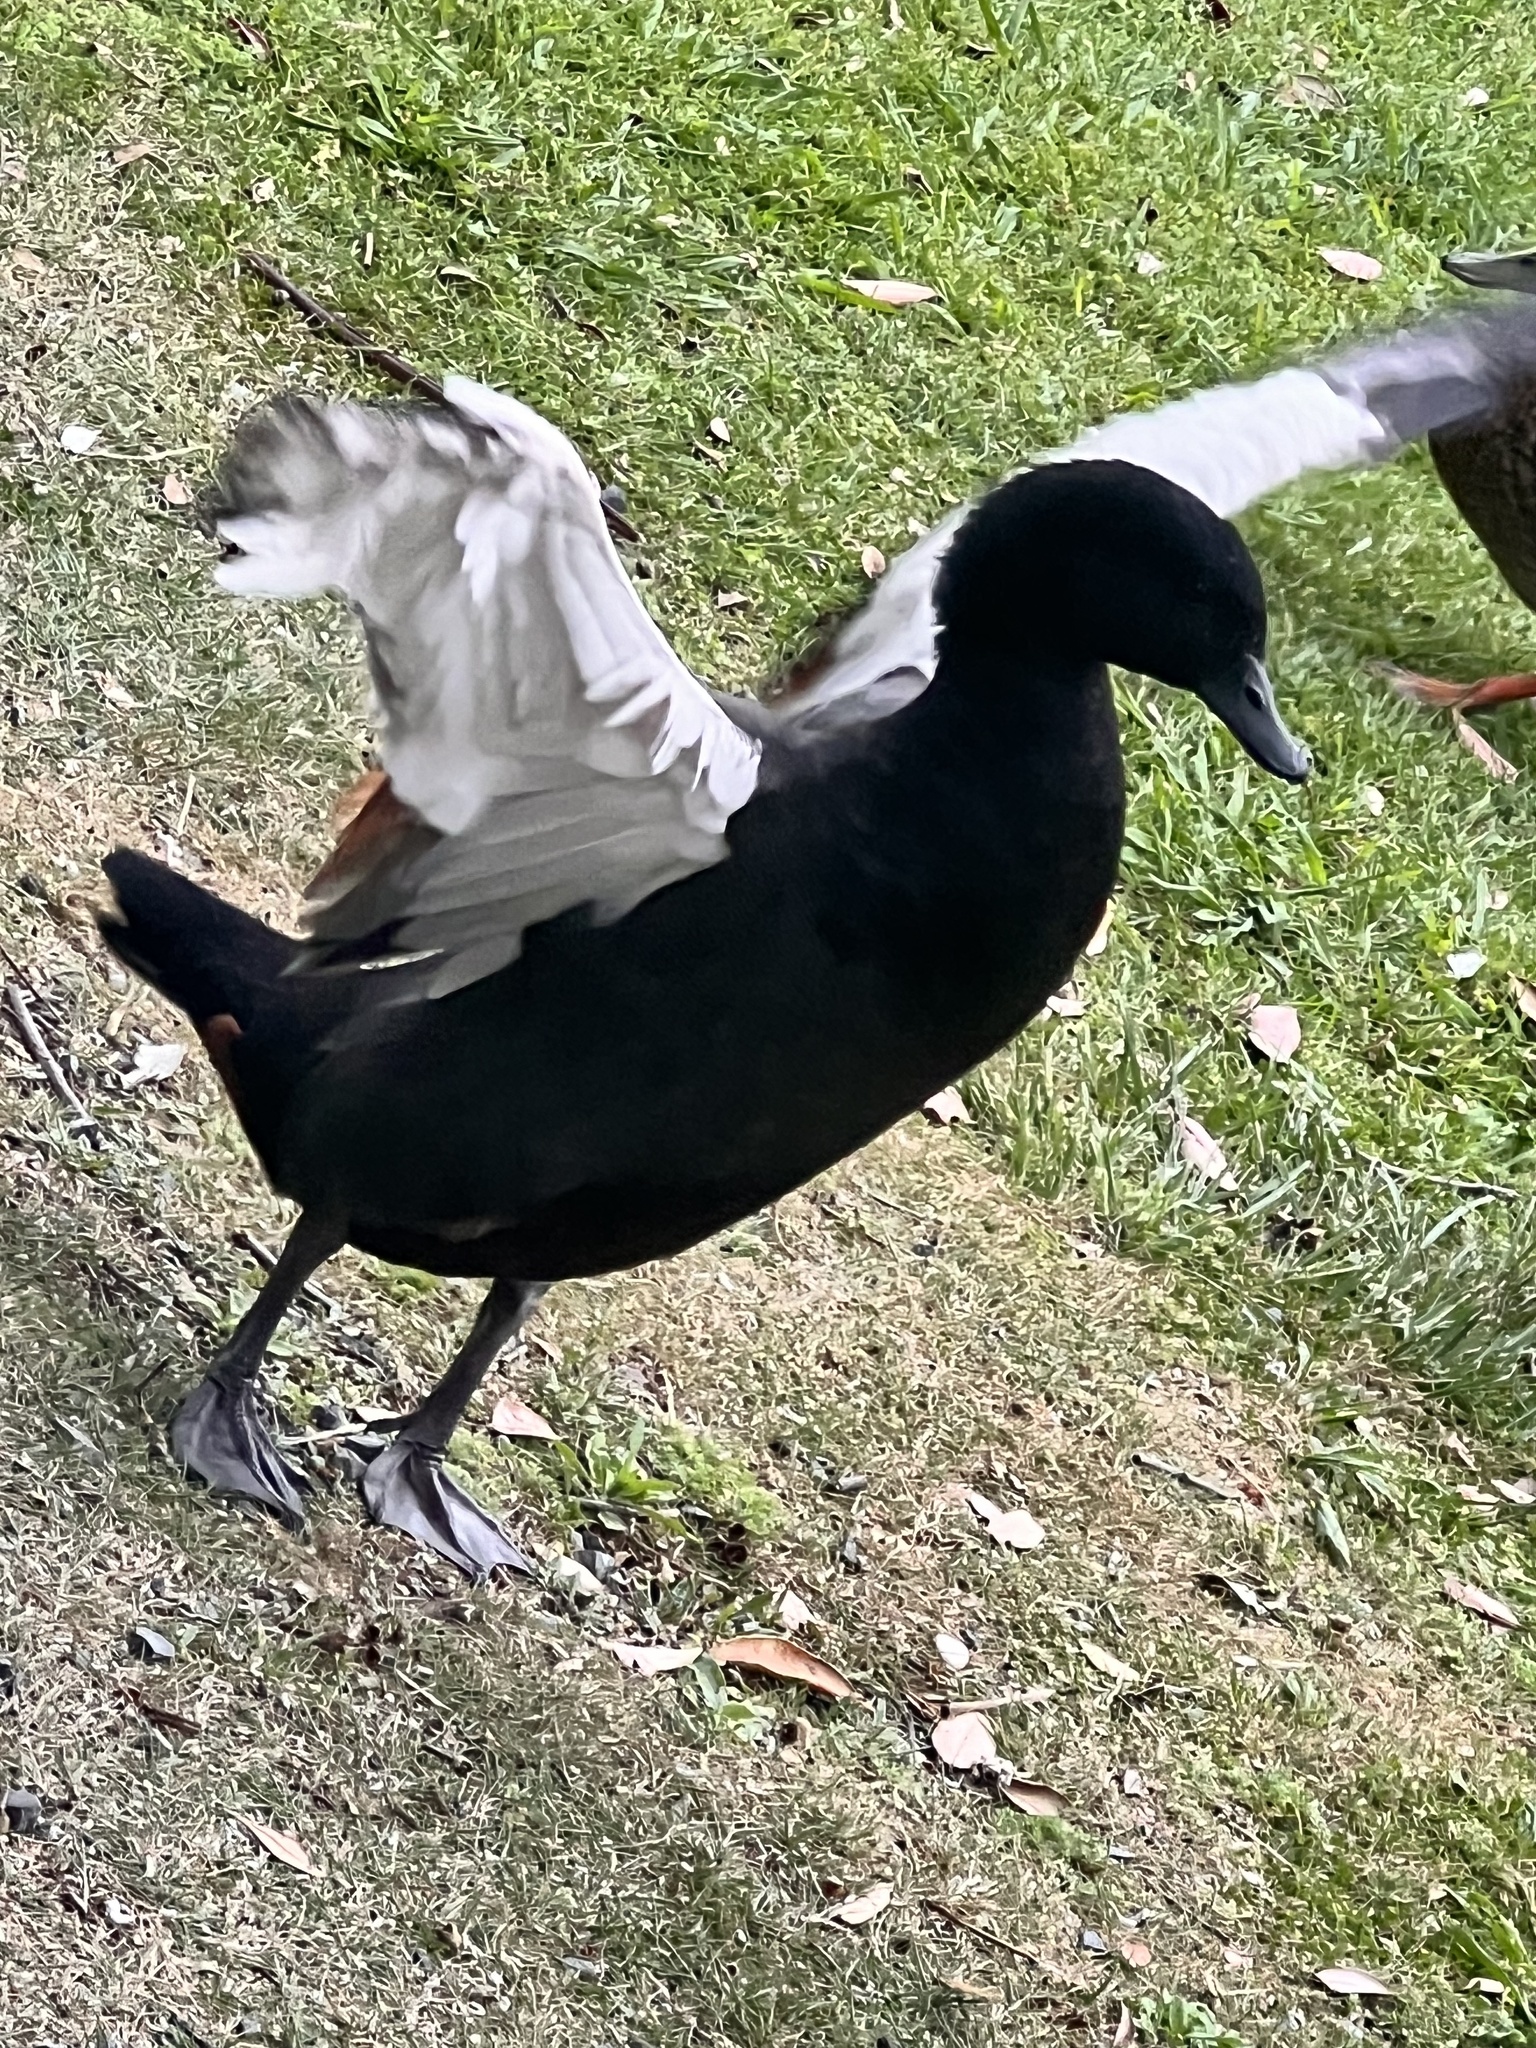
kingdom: Animalia
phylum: Chordata
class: Aves
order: Anseriformes
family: Anatidae
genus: Tadorna
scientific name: Tadorna variegata
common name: Paradise shelduck
